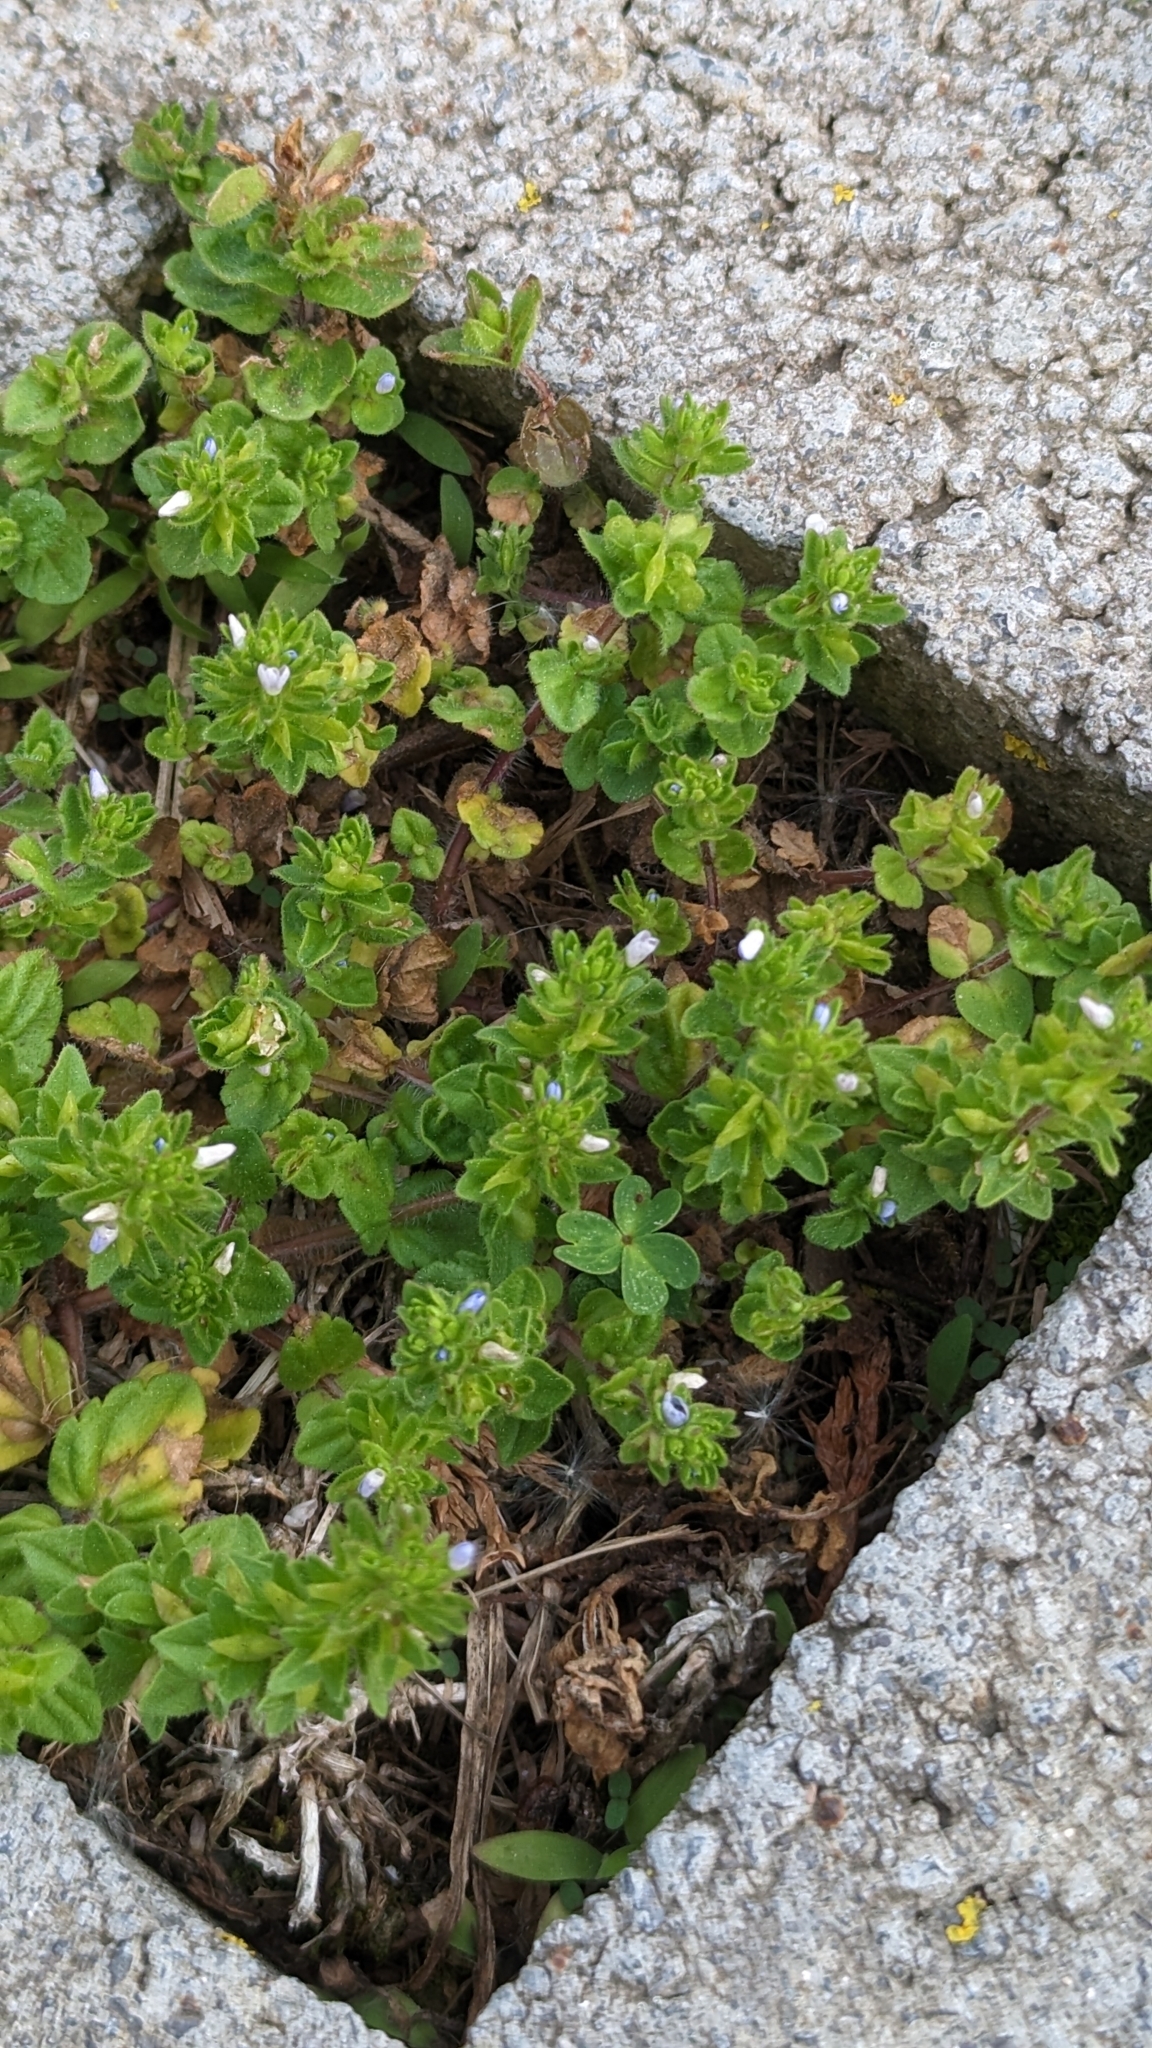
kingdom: Plantae
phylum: Tracheophyta
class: Magnoliopsida
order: Lamiales
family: Plantaginaceae
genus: Veronica
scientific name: Veronica arvensis
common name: Corn speedwell
